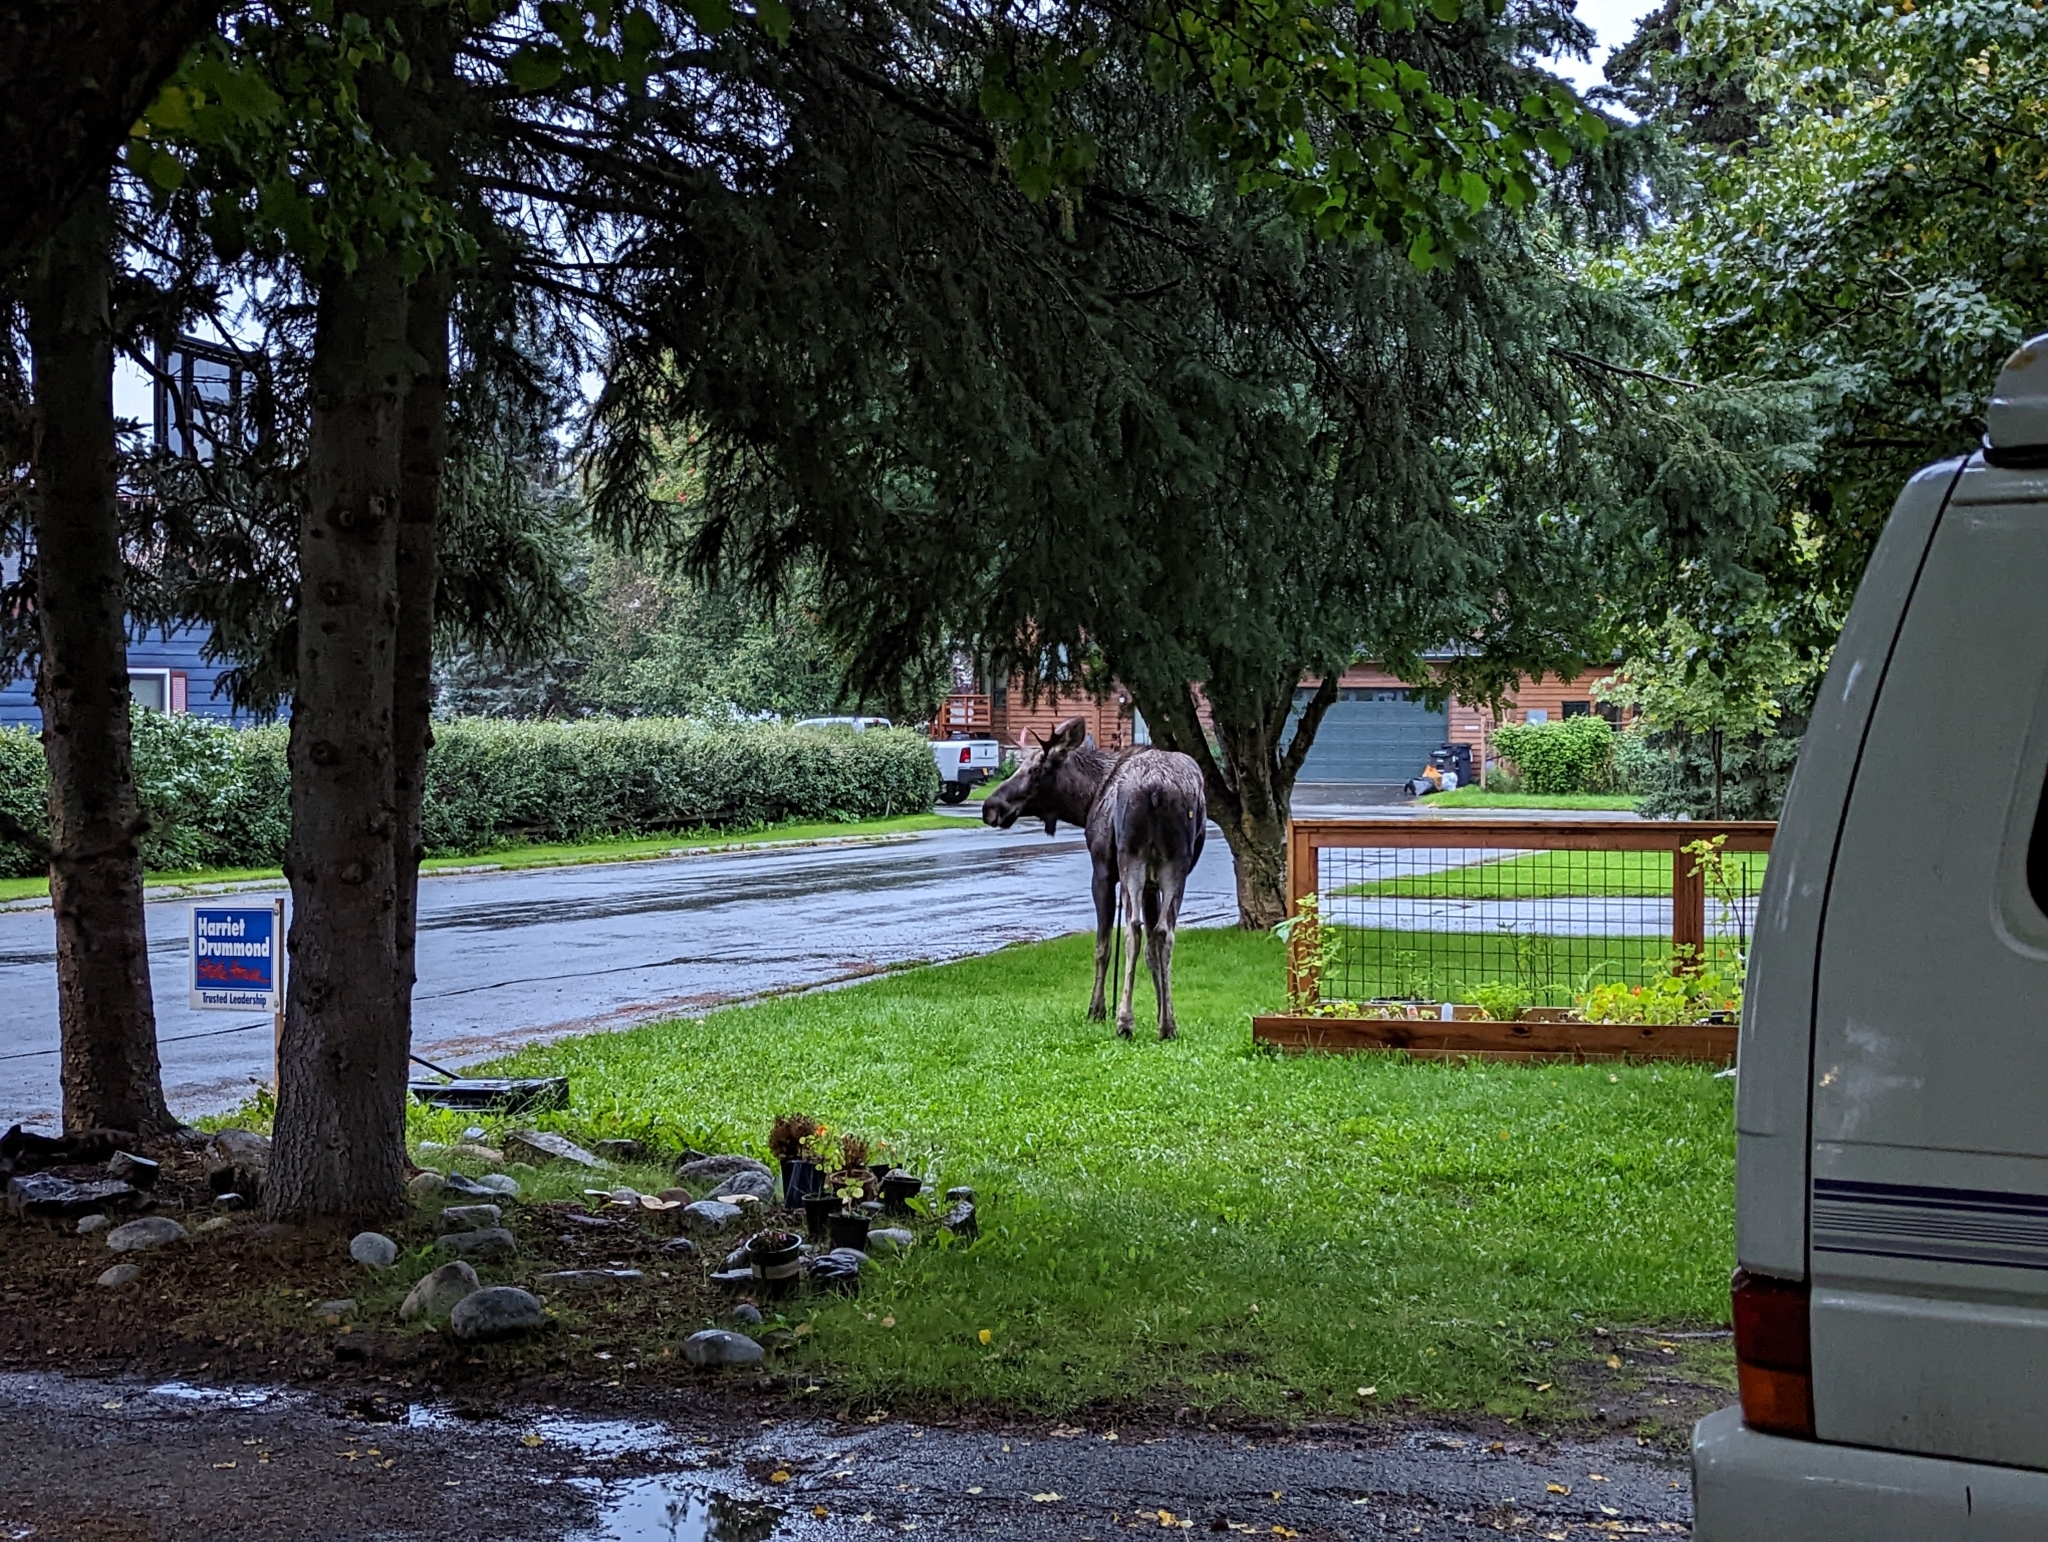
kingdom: Animalia
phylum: Chordata
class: Mammalia
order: Artiodactyla
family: Cervidae
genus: Alces
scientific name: Alces alces
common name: Moose
